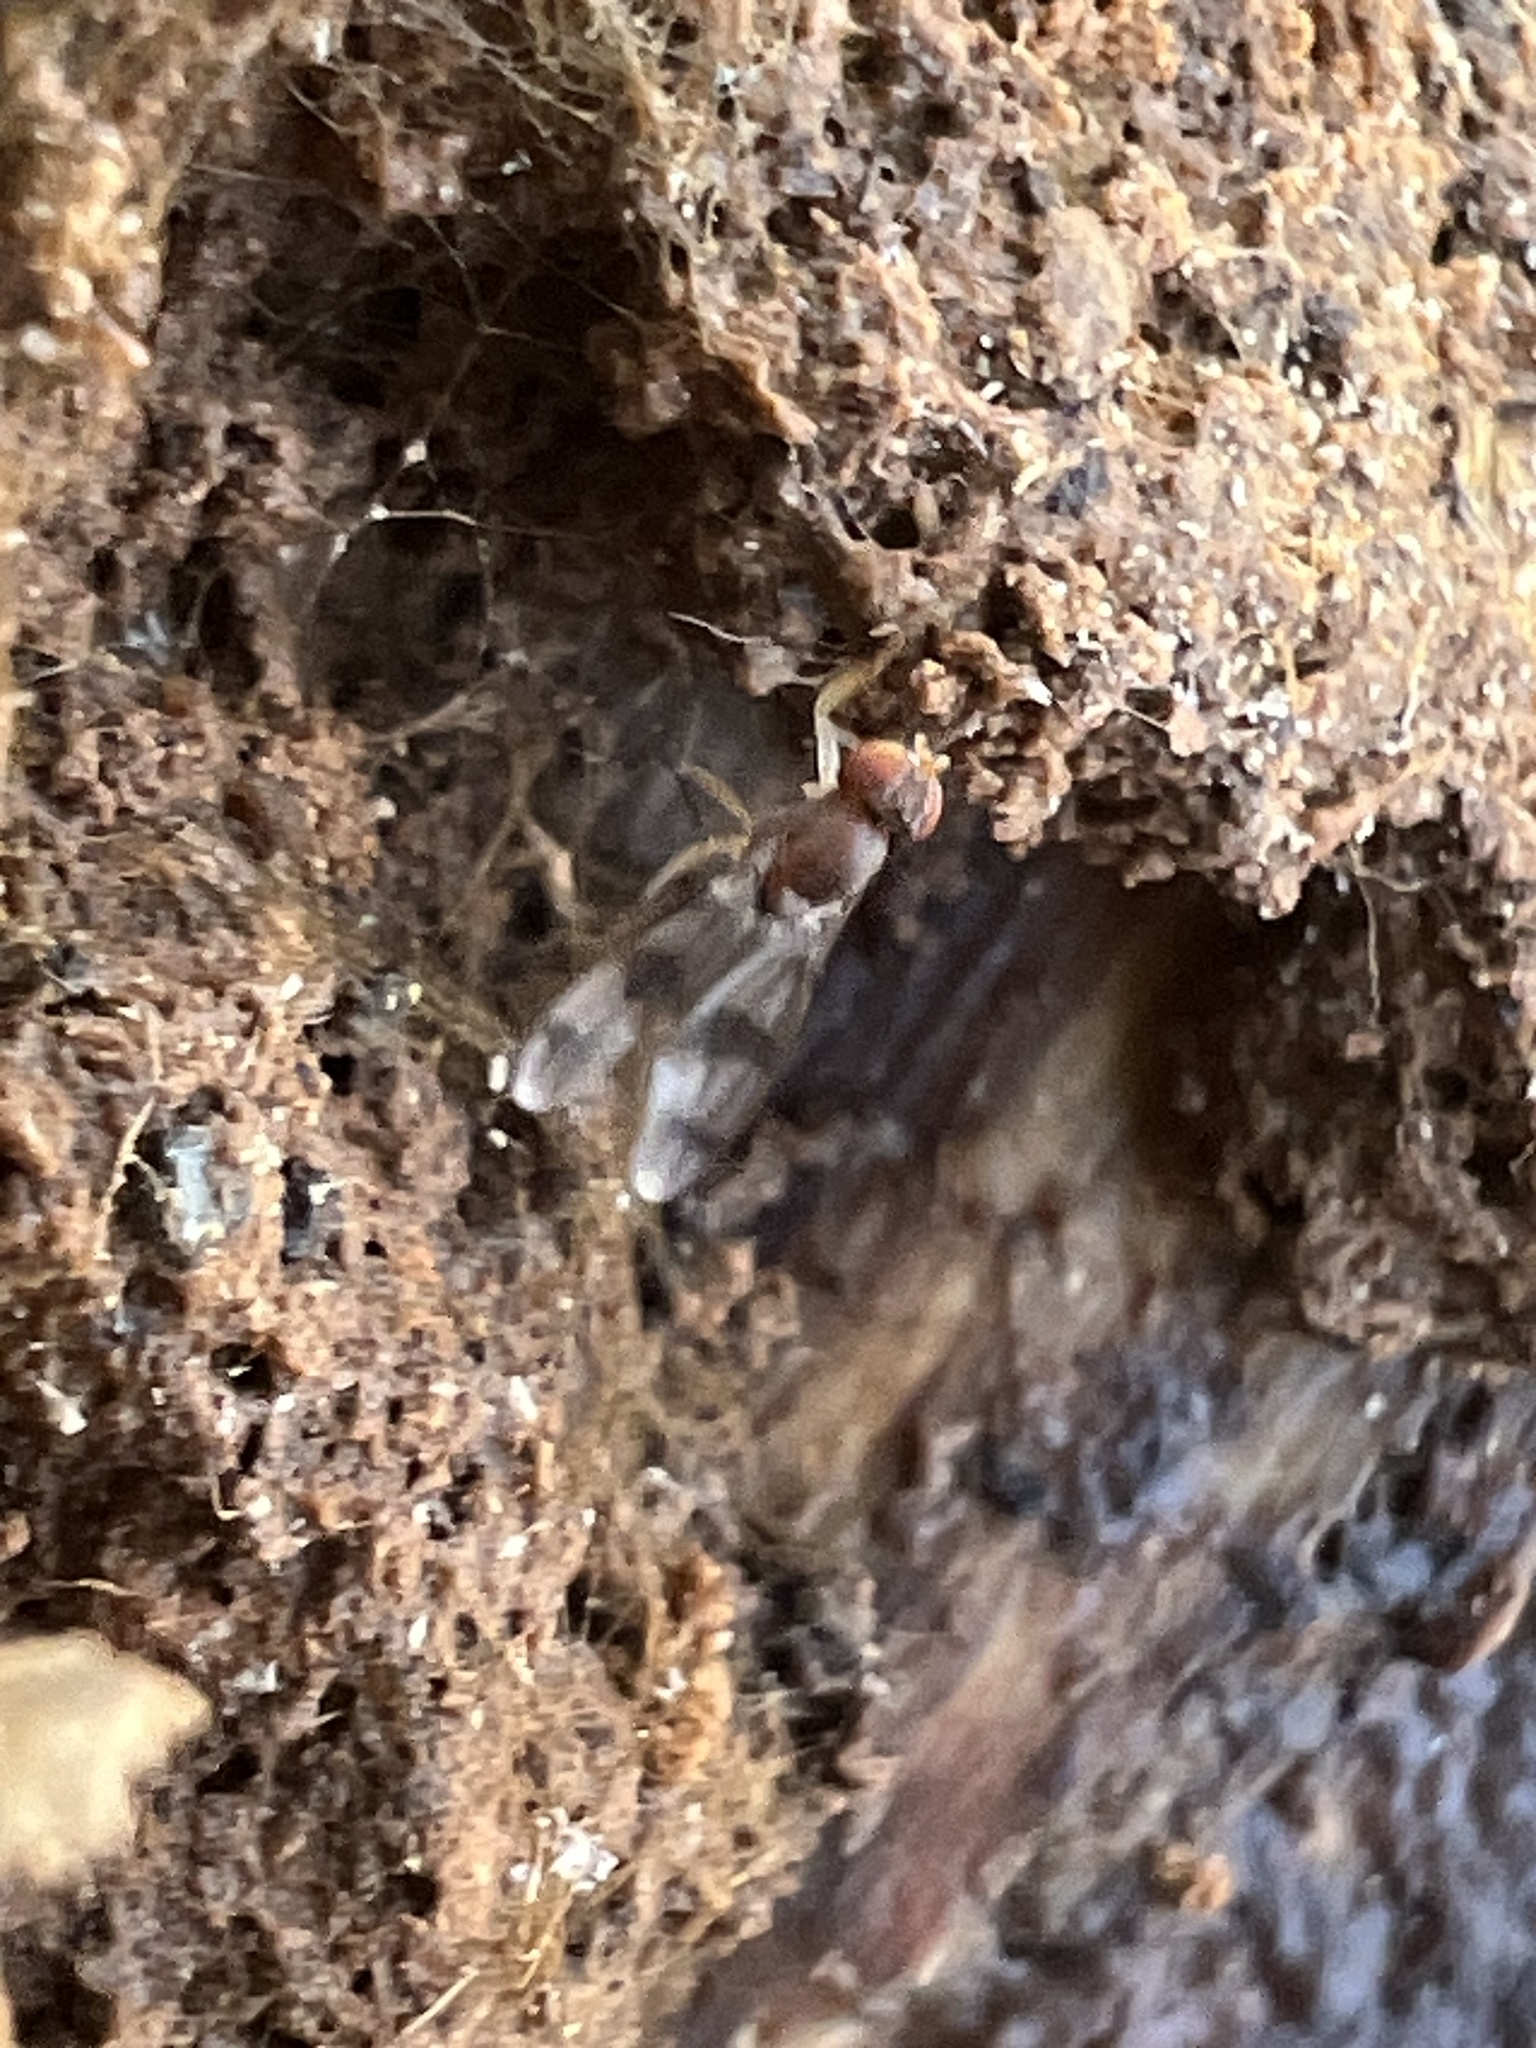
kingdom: Animalia
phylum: Arthropoda
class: Insecta
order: Diptera
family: Drosophilidae
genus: Chymomyza
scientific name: Chymomyza amoena
